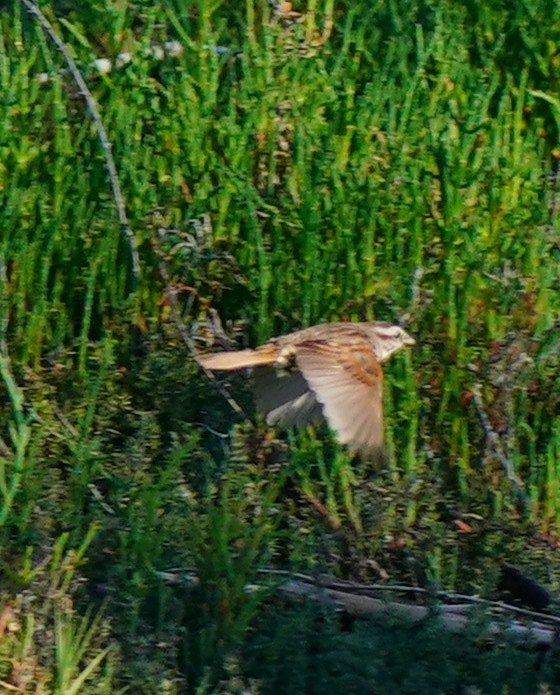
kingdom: Animalia
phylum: Chordata
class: Aves
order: Passeriformes
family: Passerellidae
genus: Melospiza
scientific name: Melospiza melodia
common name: Song sparrow
